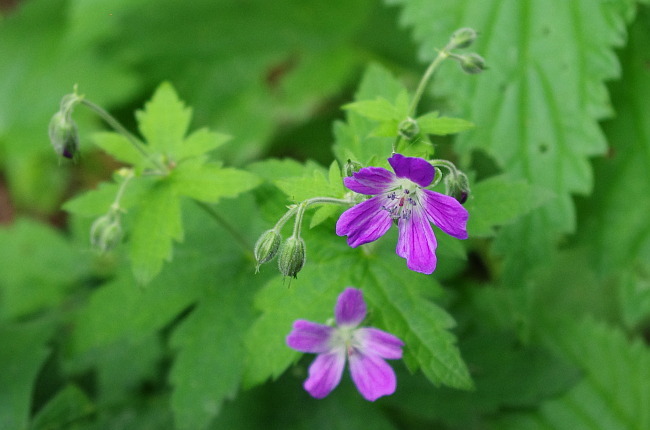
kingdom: Plantae
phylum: Tracheophyta
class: Magnoliopsida
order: Geraniales
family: Geraniaceae
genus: Geranium
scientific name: Geranium sylvaticum
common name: Wood crane's-bill
